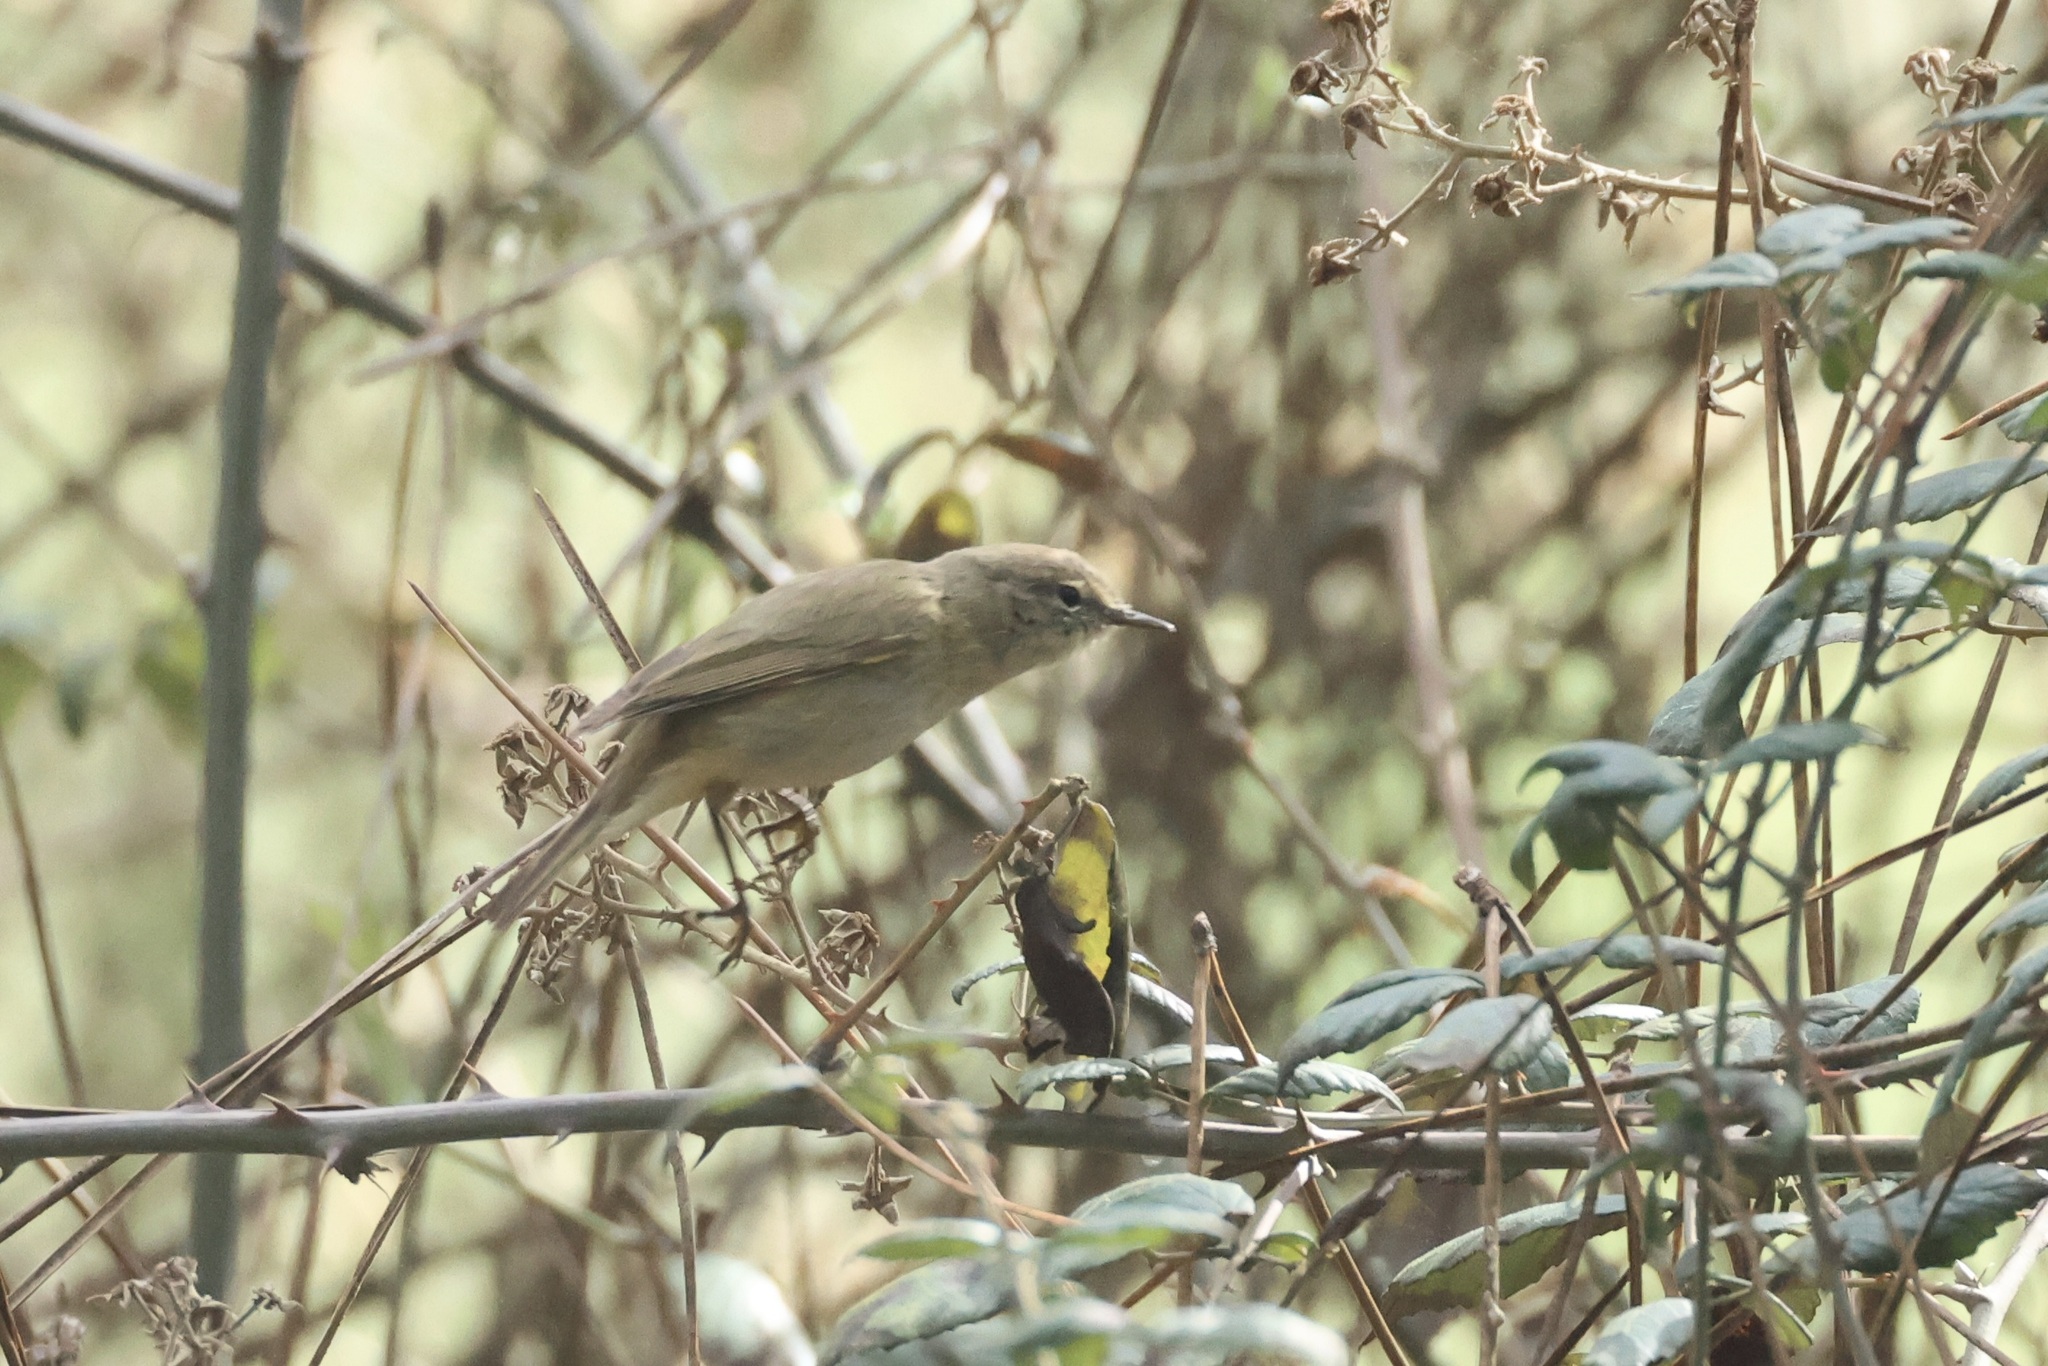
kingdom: Animalia
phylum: Chordata
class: Aves
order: Passeriformes
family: Phylloscopidae
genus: Phylloscopus
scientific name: Phylloscopus collybita
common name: Common chiffchaff
